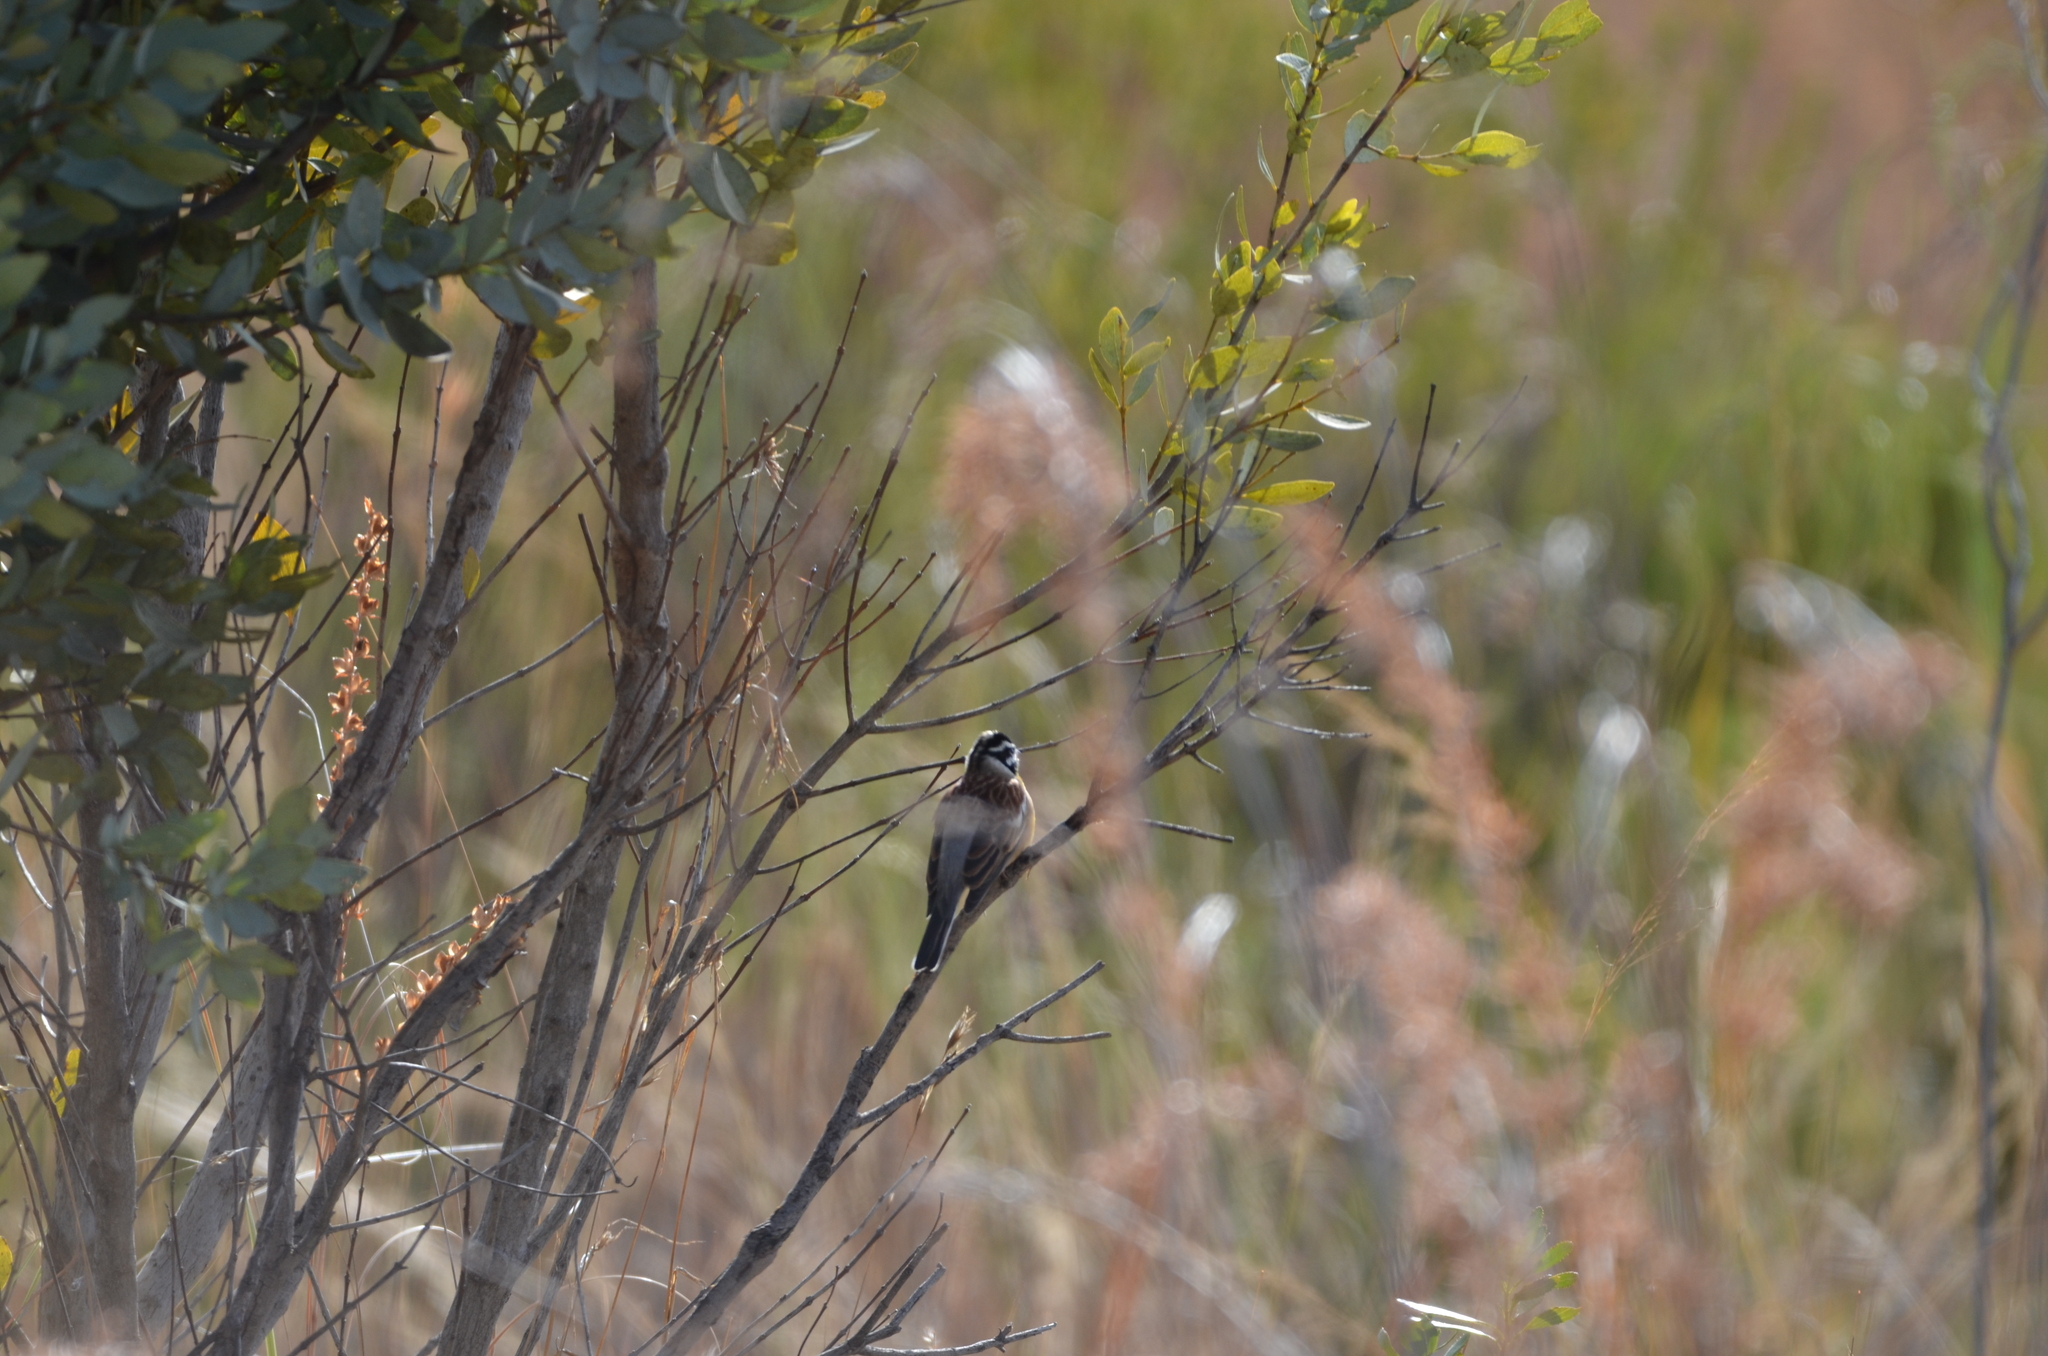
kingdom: Animalia
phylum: Chordata
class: Aves
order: Passeriformes
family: Emberizidae
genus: Emberiza
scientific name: Emberiza flaviventris
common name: Golden-breasted bunting
